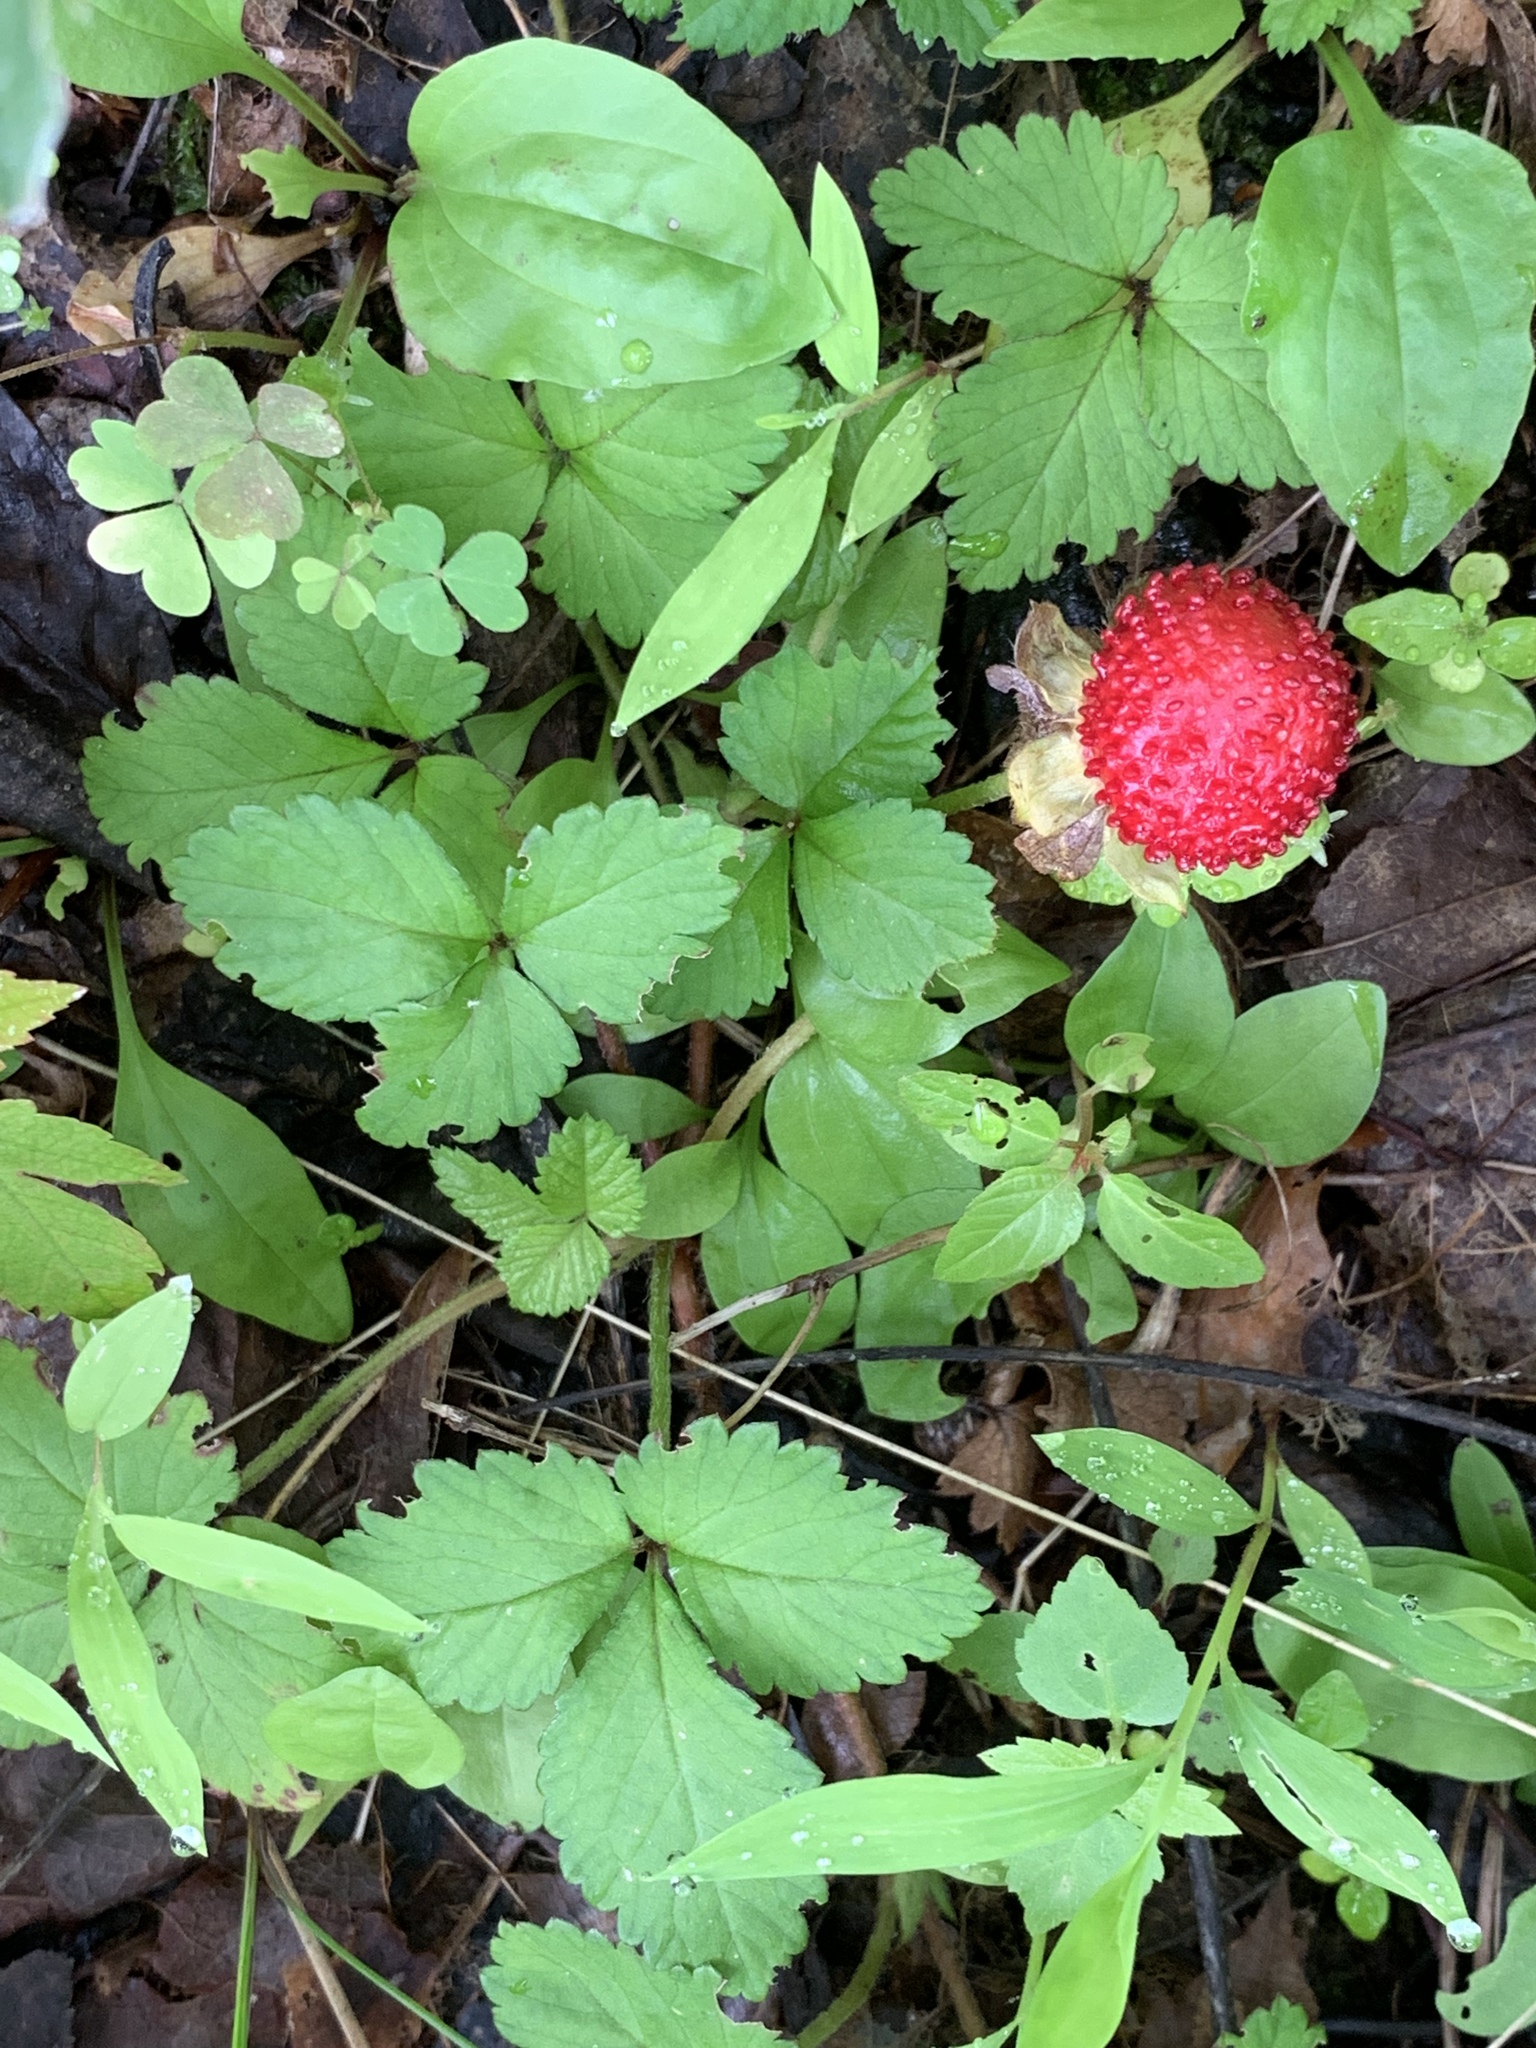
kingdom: Plantae
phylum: Tracheophyta
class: Magnoliopsida
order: Rosales
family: Rosaceae
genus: Potentilla
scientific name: Potentilla indica
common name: Yellow-flowered strawberry
